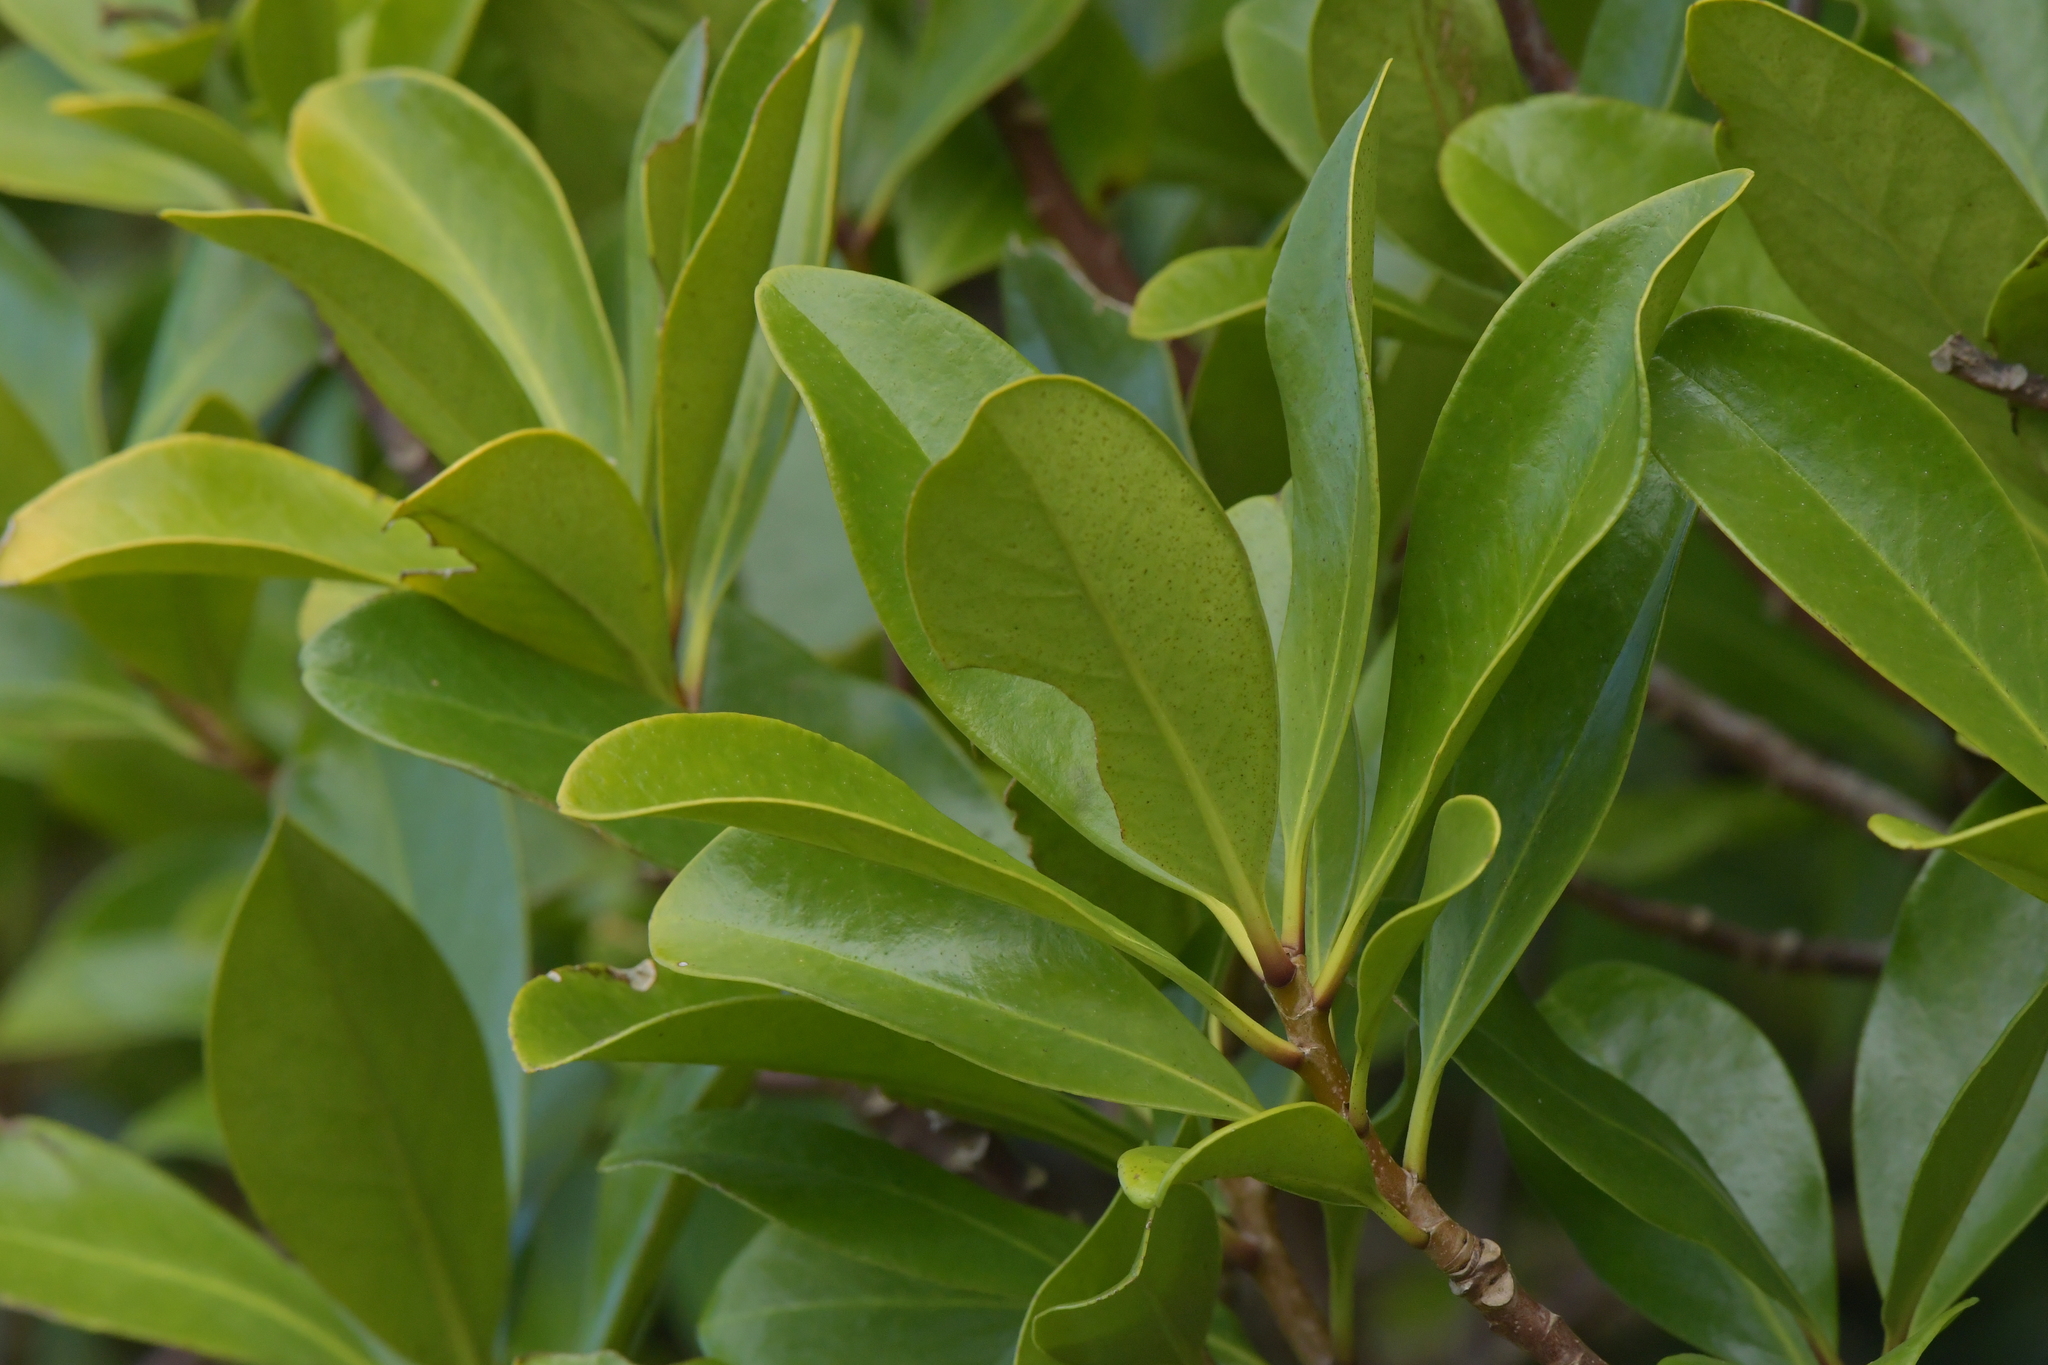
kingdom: Plantae
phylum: Tracheophyta
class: Magnoliopsida
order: Ericales
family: Primulaceae
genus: Myrsine
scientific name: Myrsine chathamica
